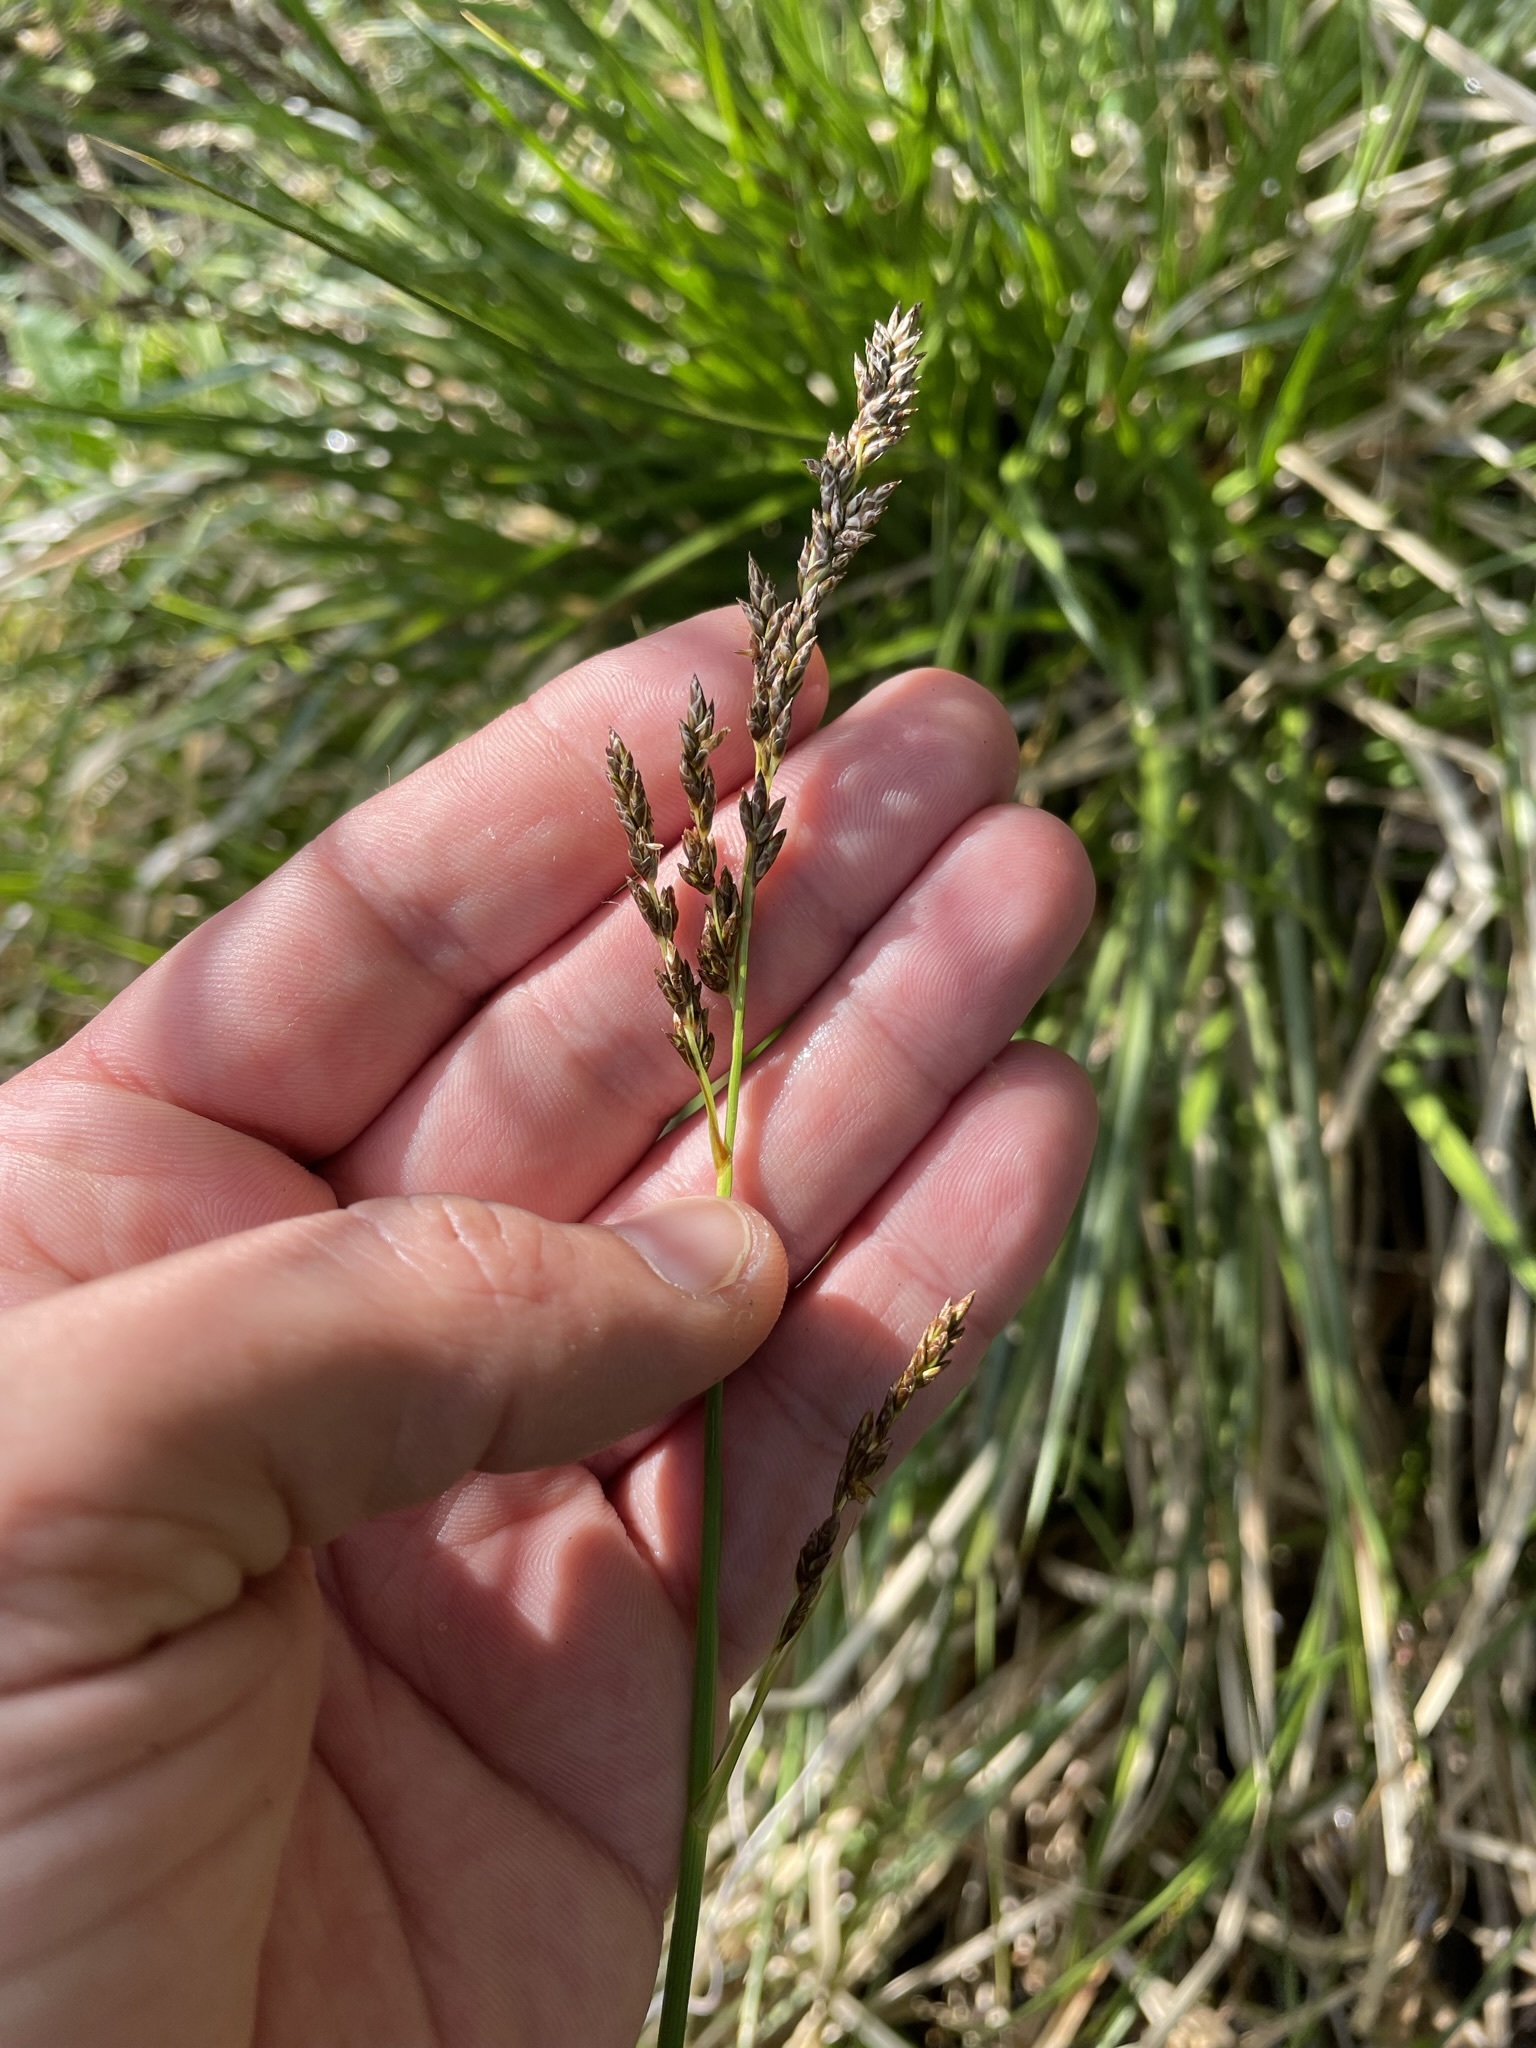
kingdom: Plantae
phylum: Tracheophyta
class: Liliopsida
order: Poales
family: Cyperaceae
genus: Carex
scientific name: Carex paniculata
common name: Greater tussock-sedge
